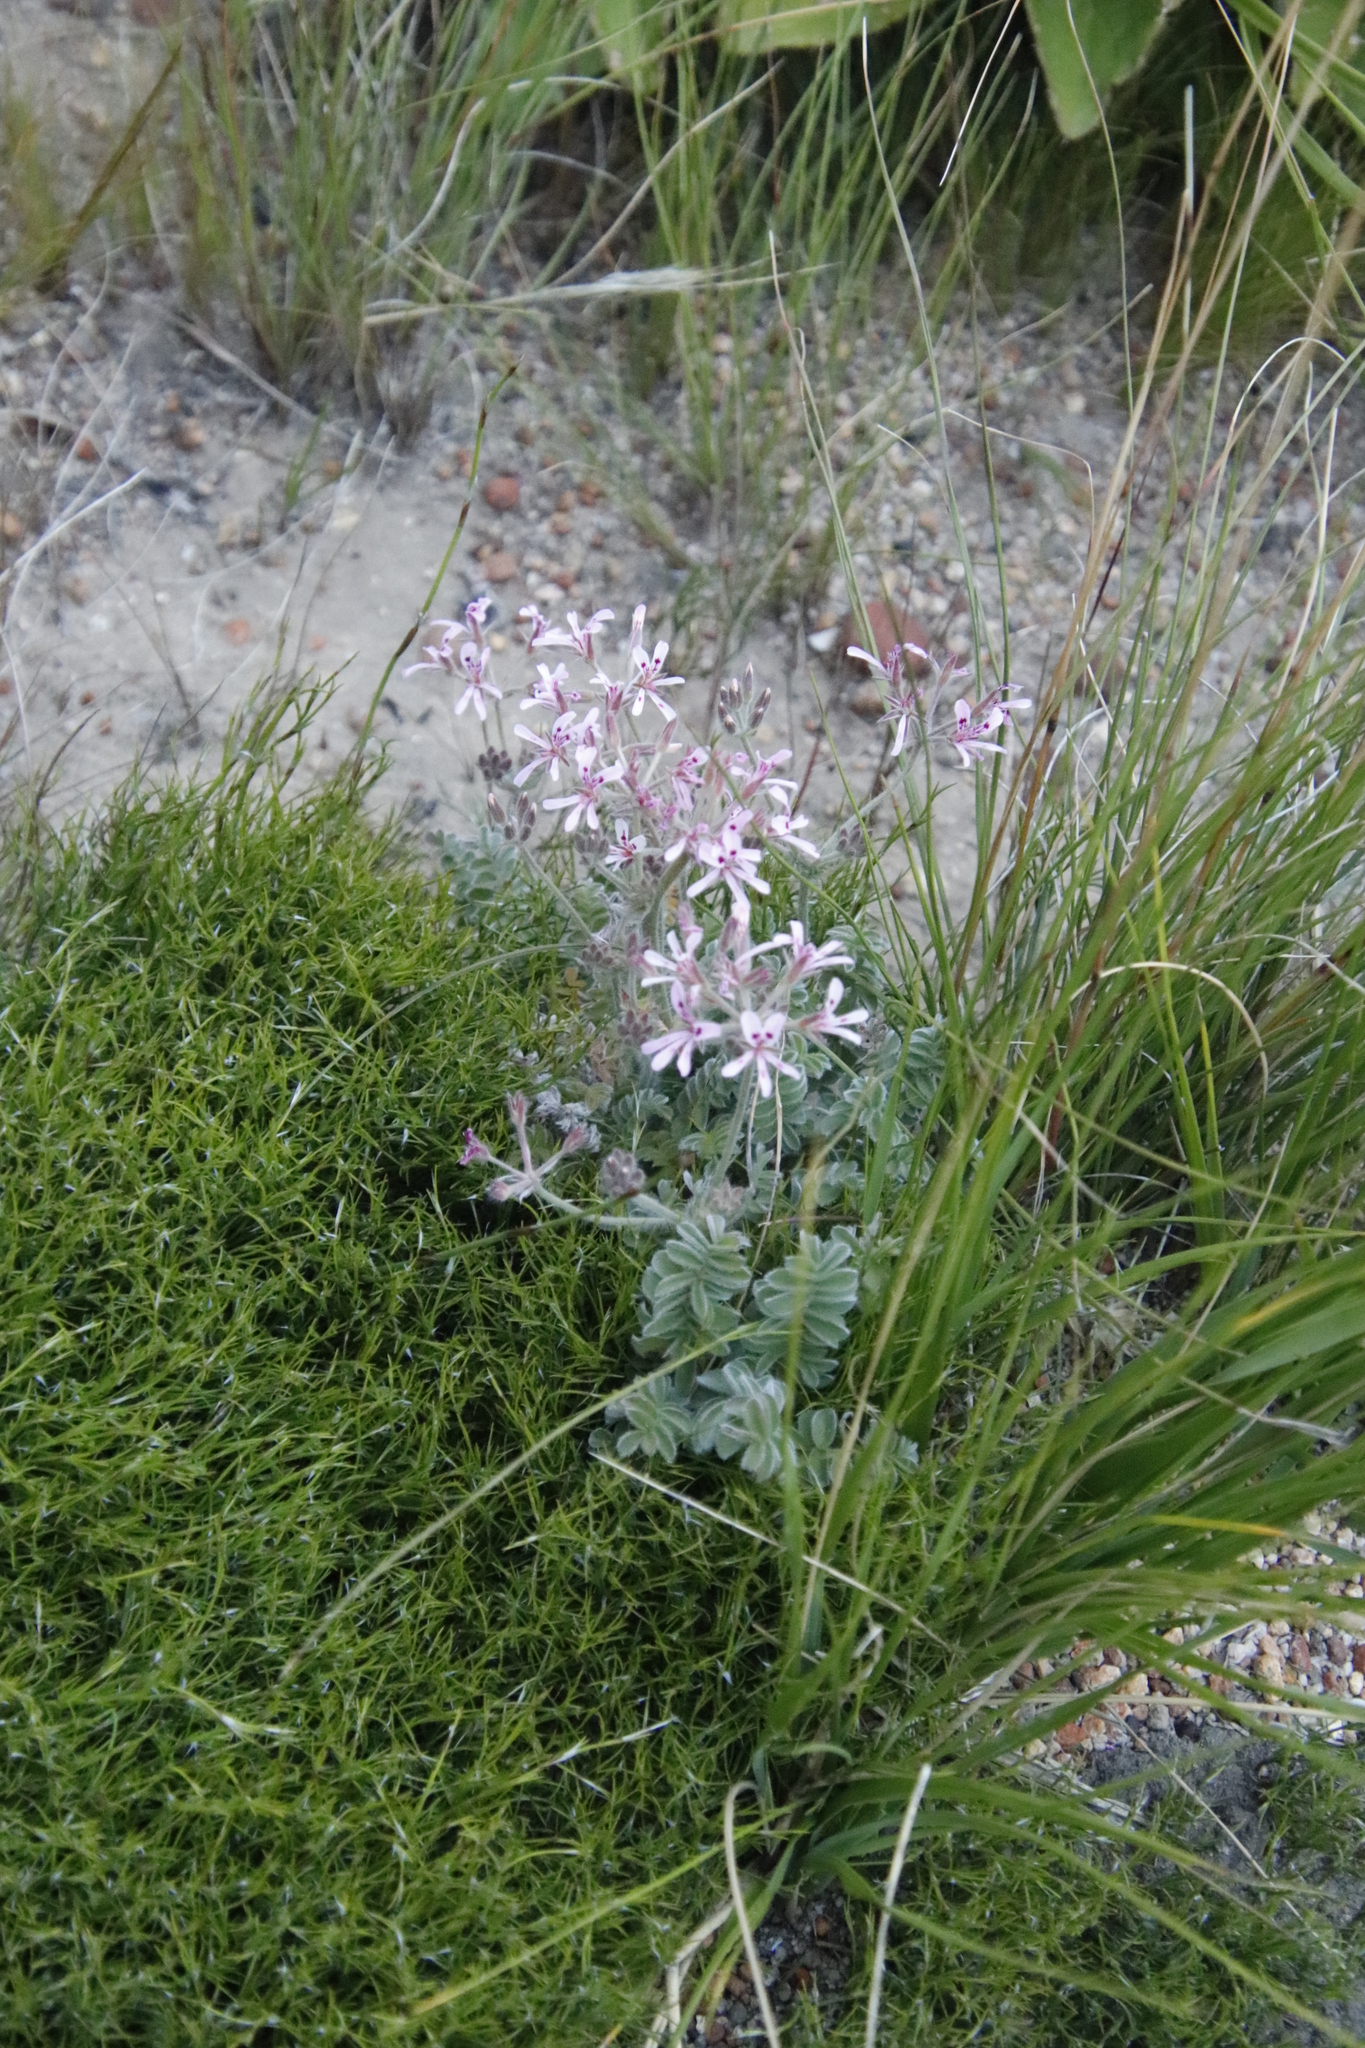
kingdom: Plantae
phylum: Tracheophyta
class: Magnoliopsida
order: Geraniales
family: Geraniaceae
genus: Pelargonium
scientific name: Pelargonium viciifolium
